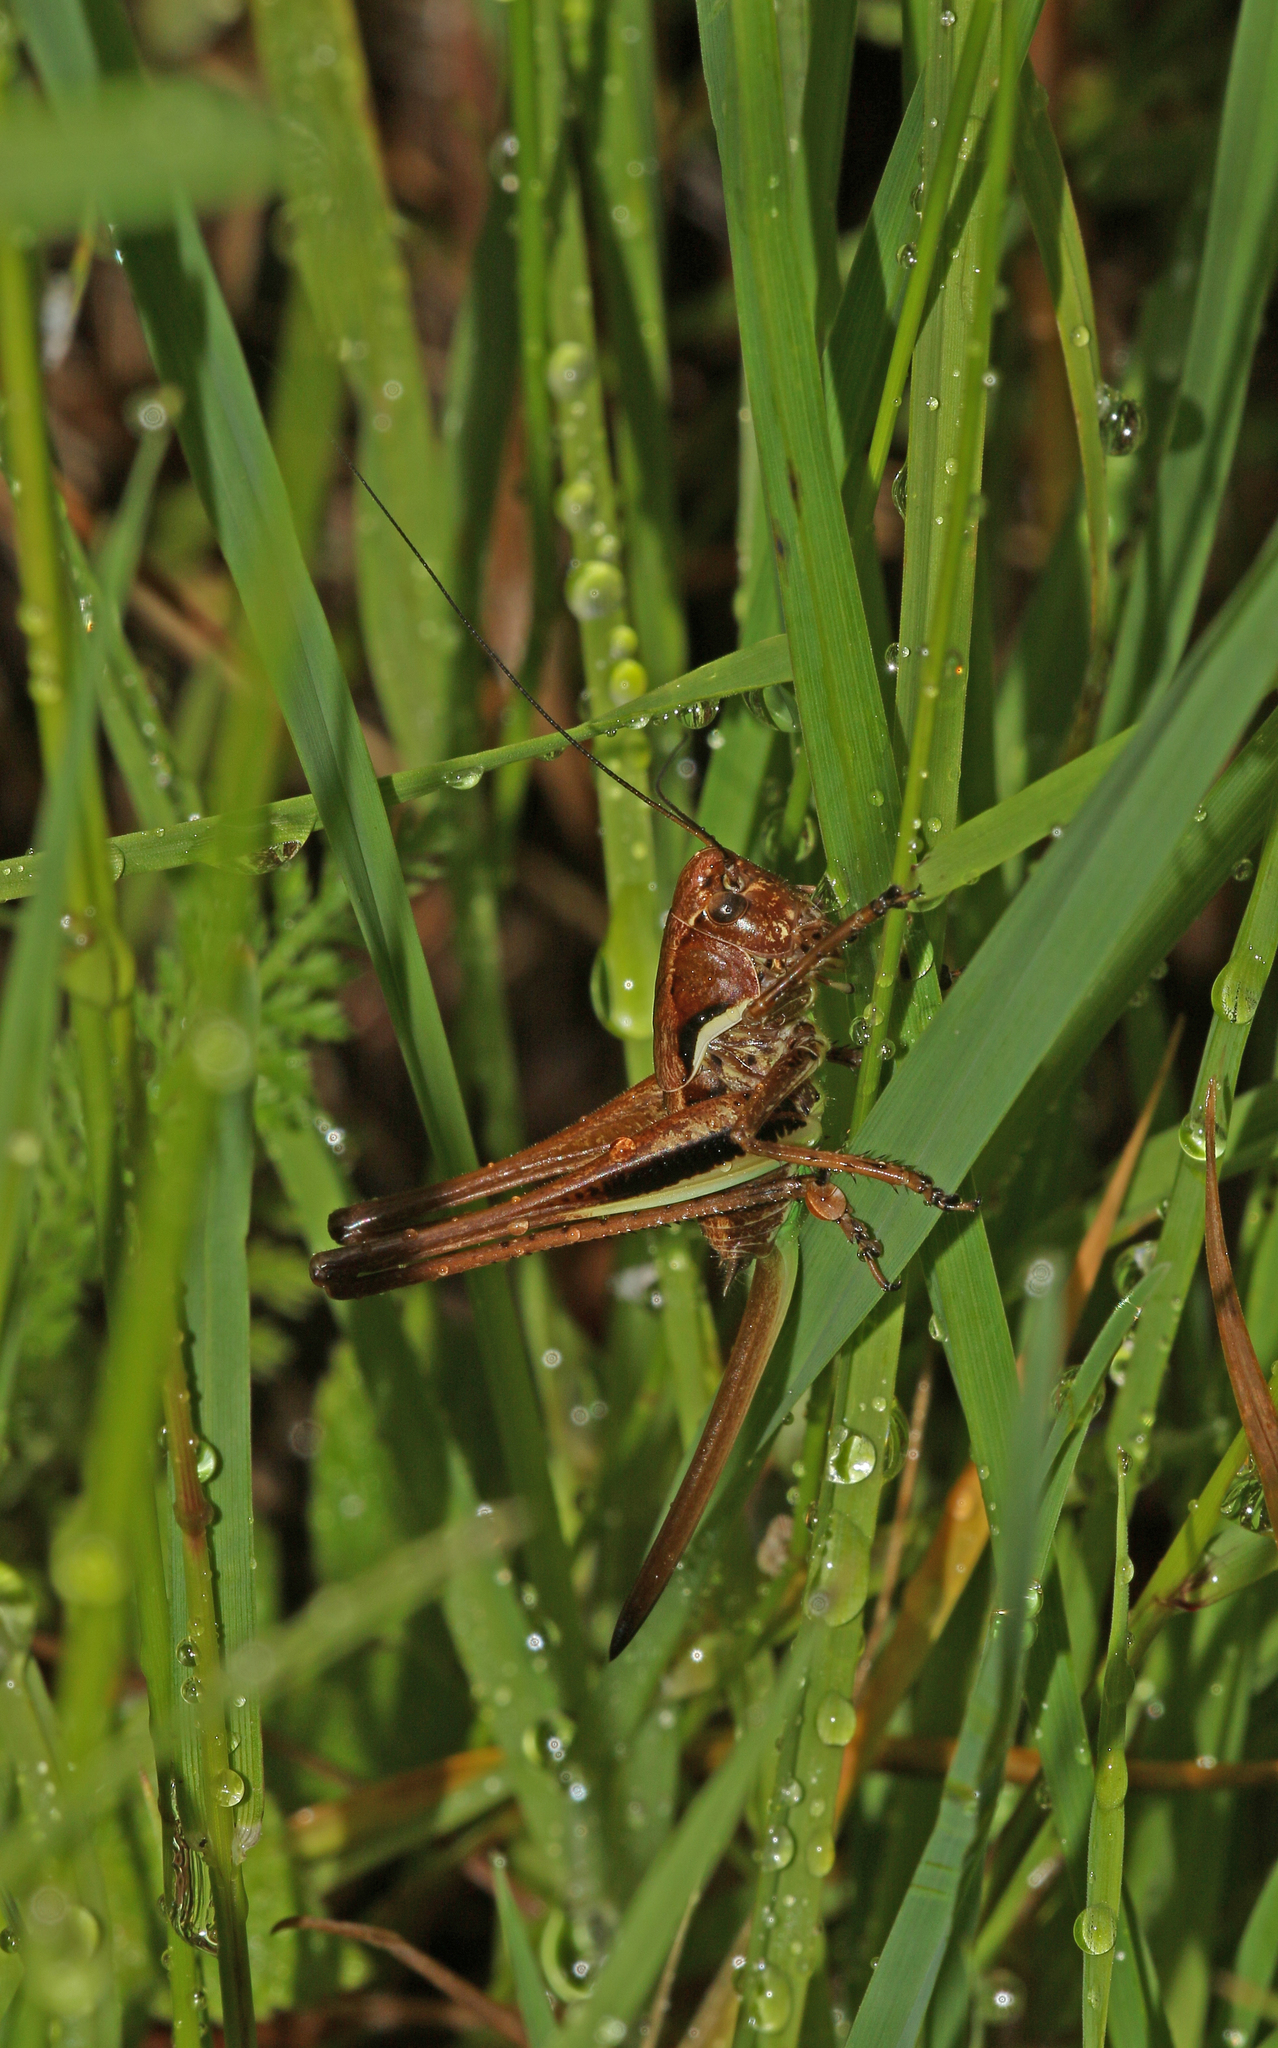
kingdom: Animalia
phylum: Arthropoda
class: Insecta
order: Orthoptera
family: Tettigoniidae
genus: Pholidoptera
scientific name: Pholidoptera
